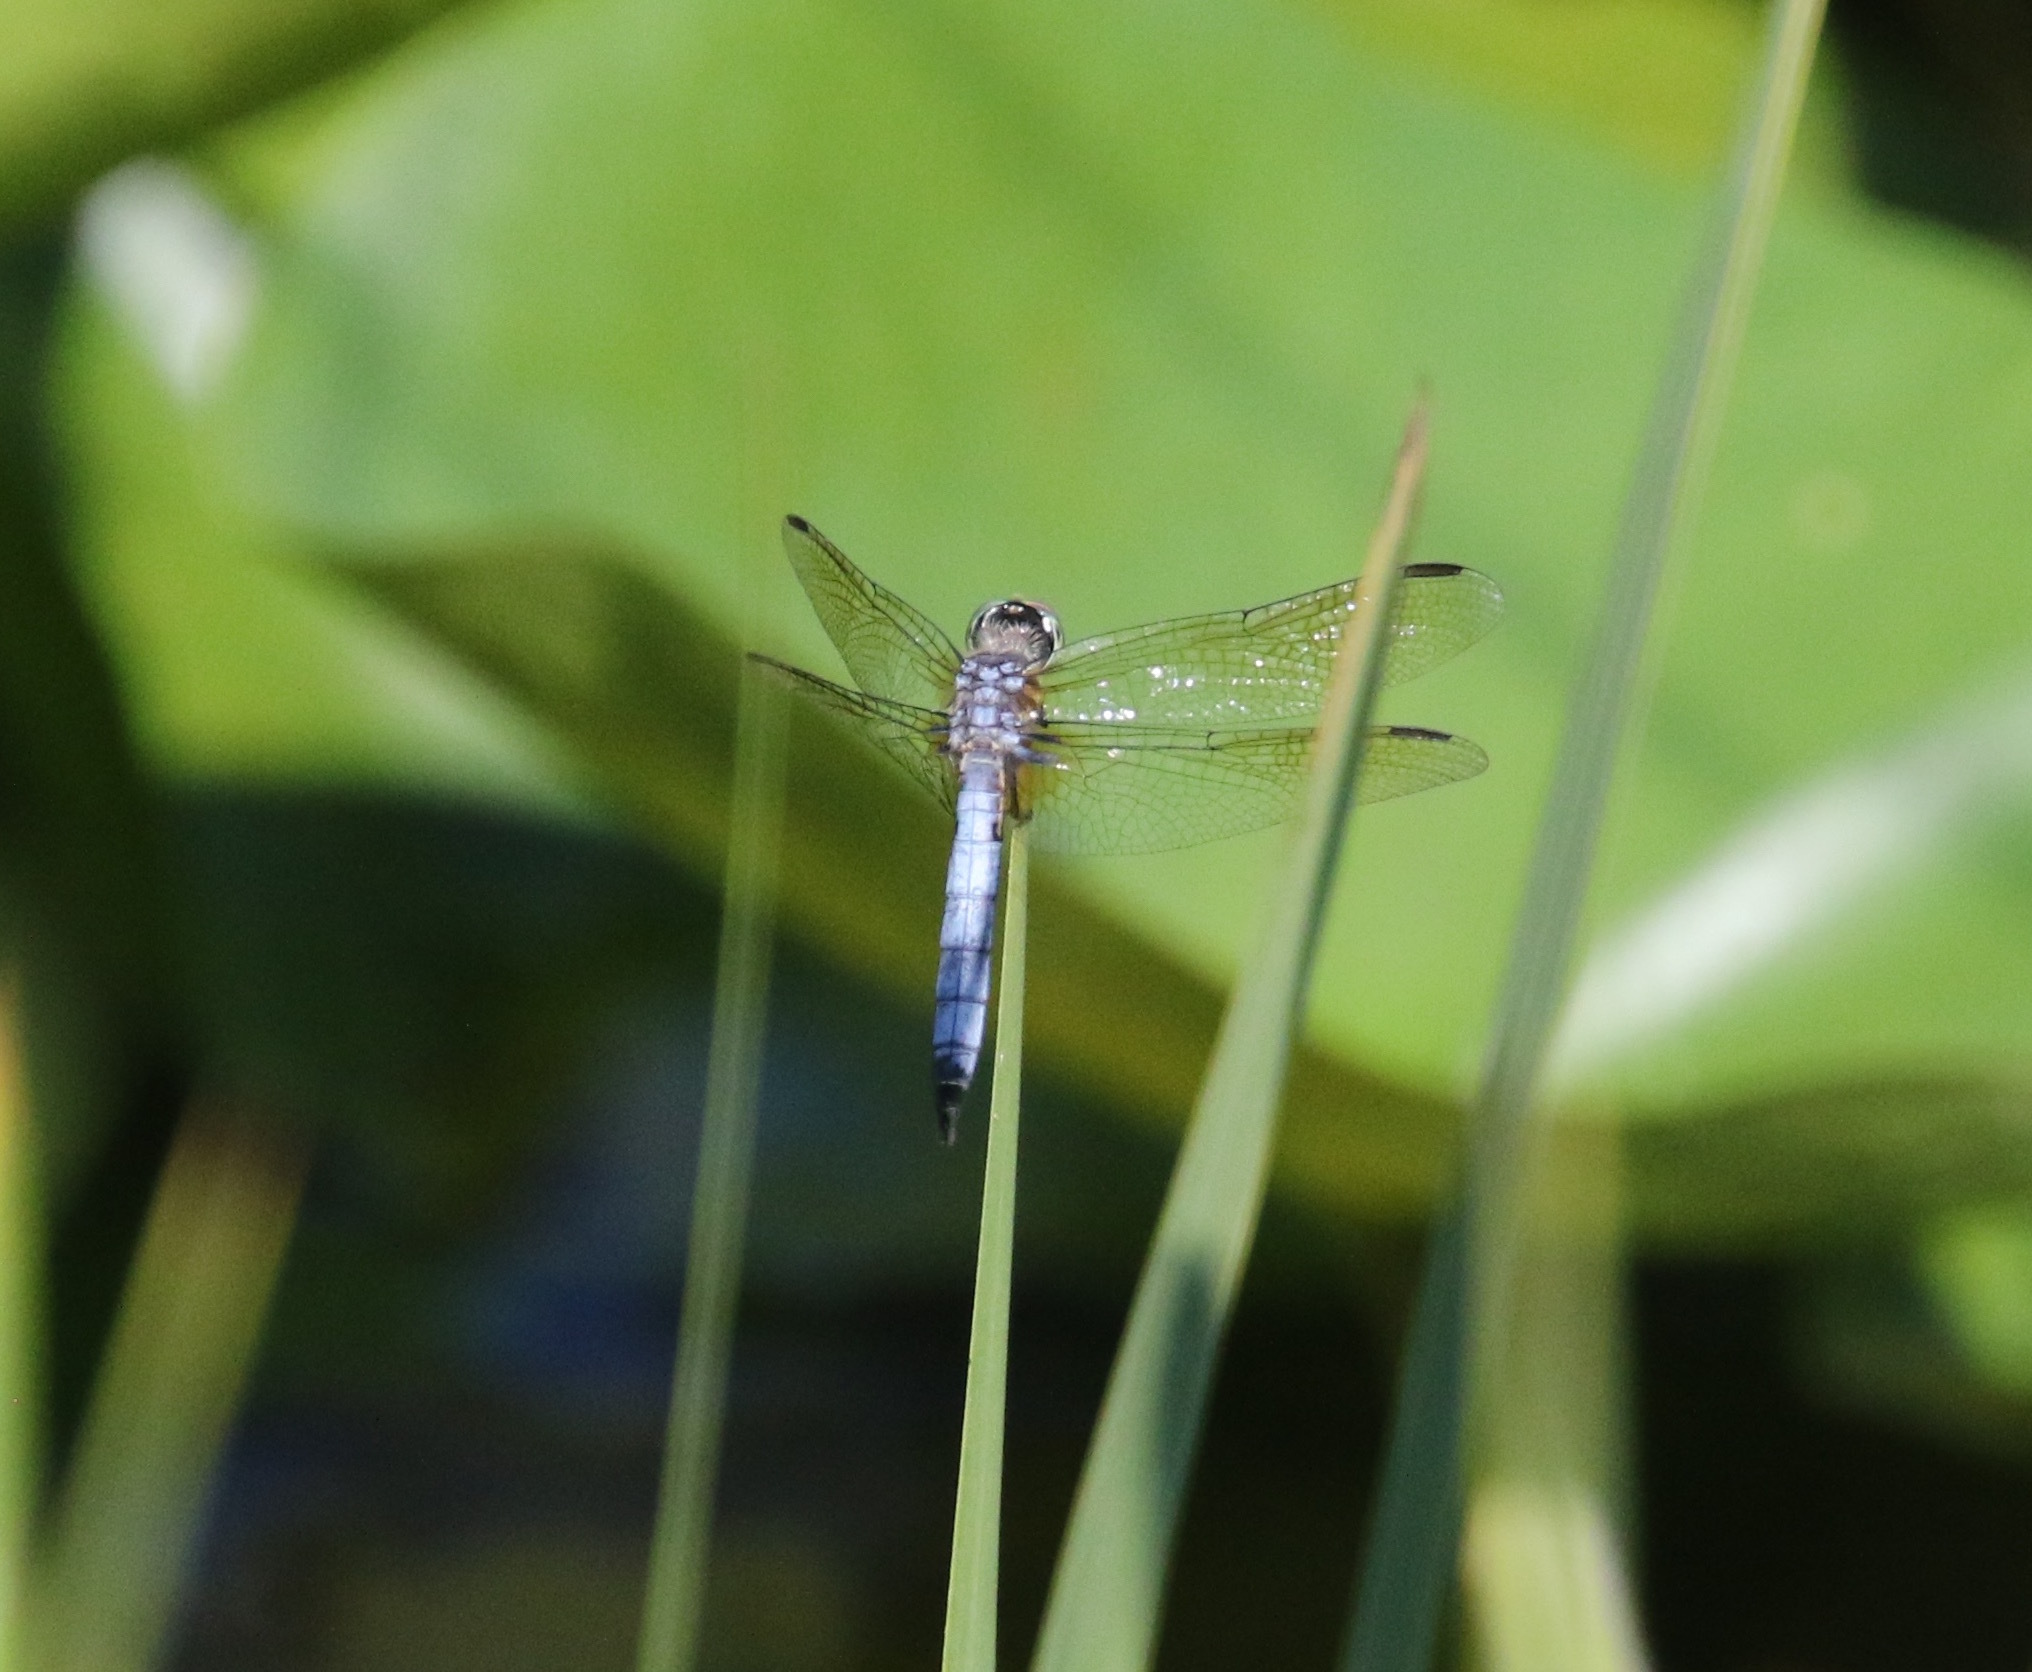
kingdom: Animalia
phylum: Arthropoda
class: Insecta
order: Odonata
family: Libellulidae
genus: Pachydiplax
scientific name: Pachydiplax longipennis
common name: Blue dasher
